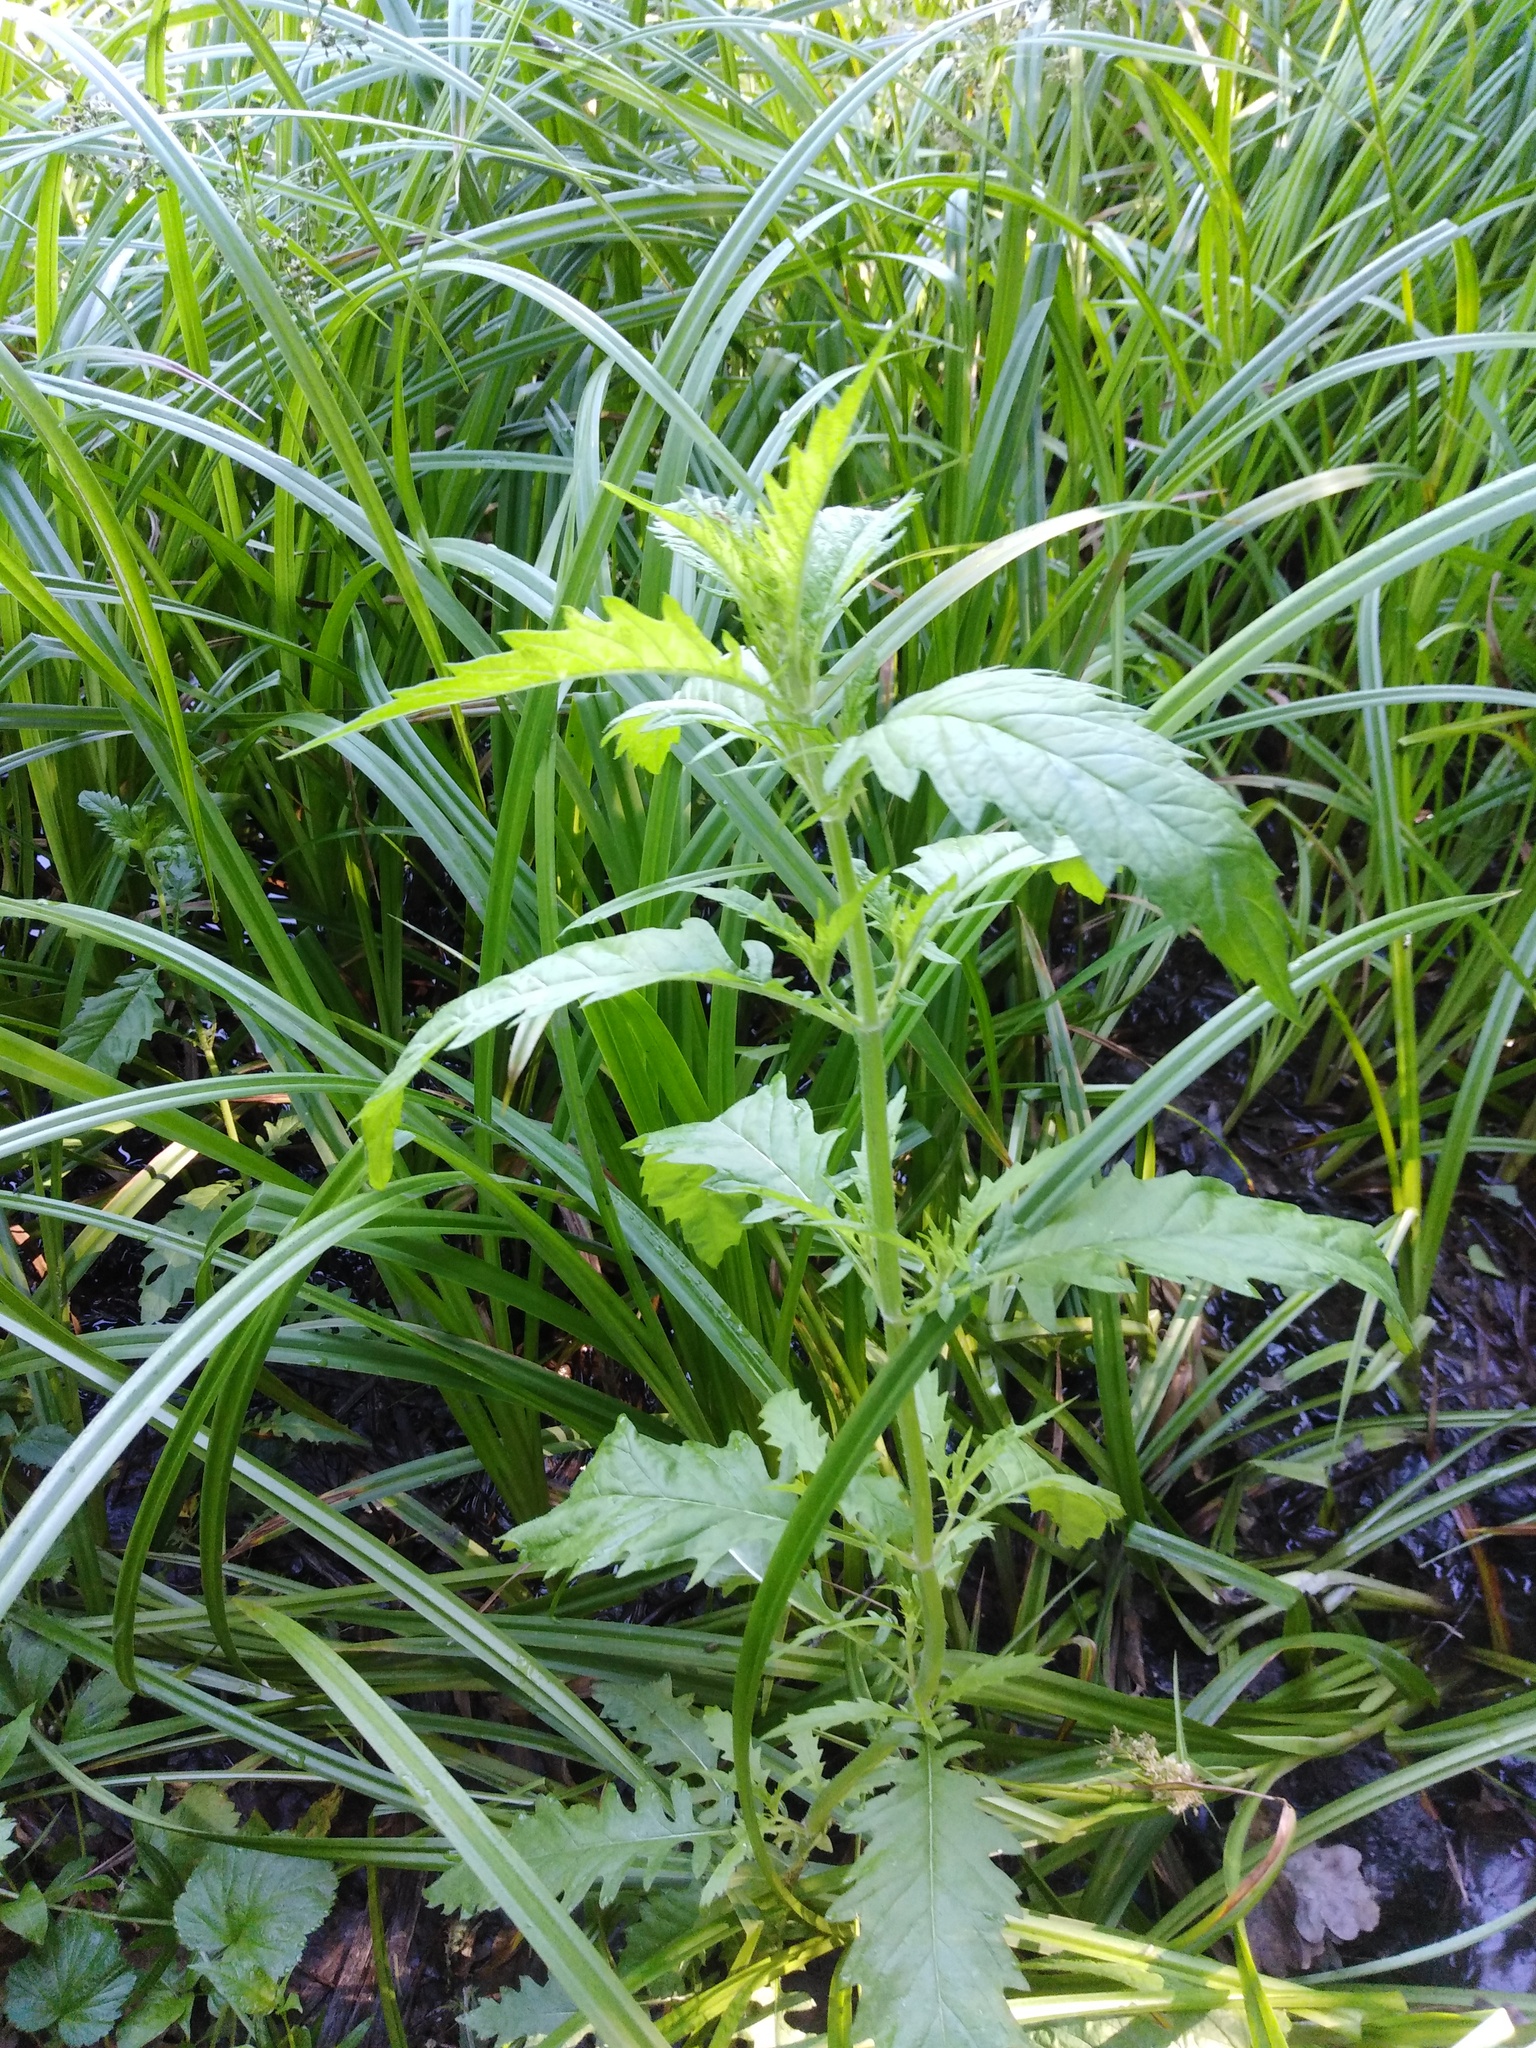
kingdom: Plantae
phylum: Tracheophyta
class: Magnoliopsida
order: Lamiales
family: Lamiaceae
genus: Lycopus
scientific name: Lycopus europaeus
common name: European bugleweed
